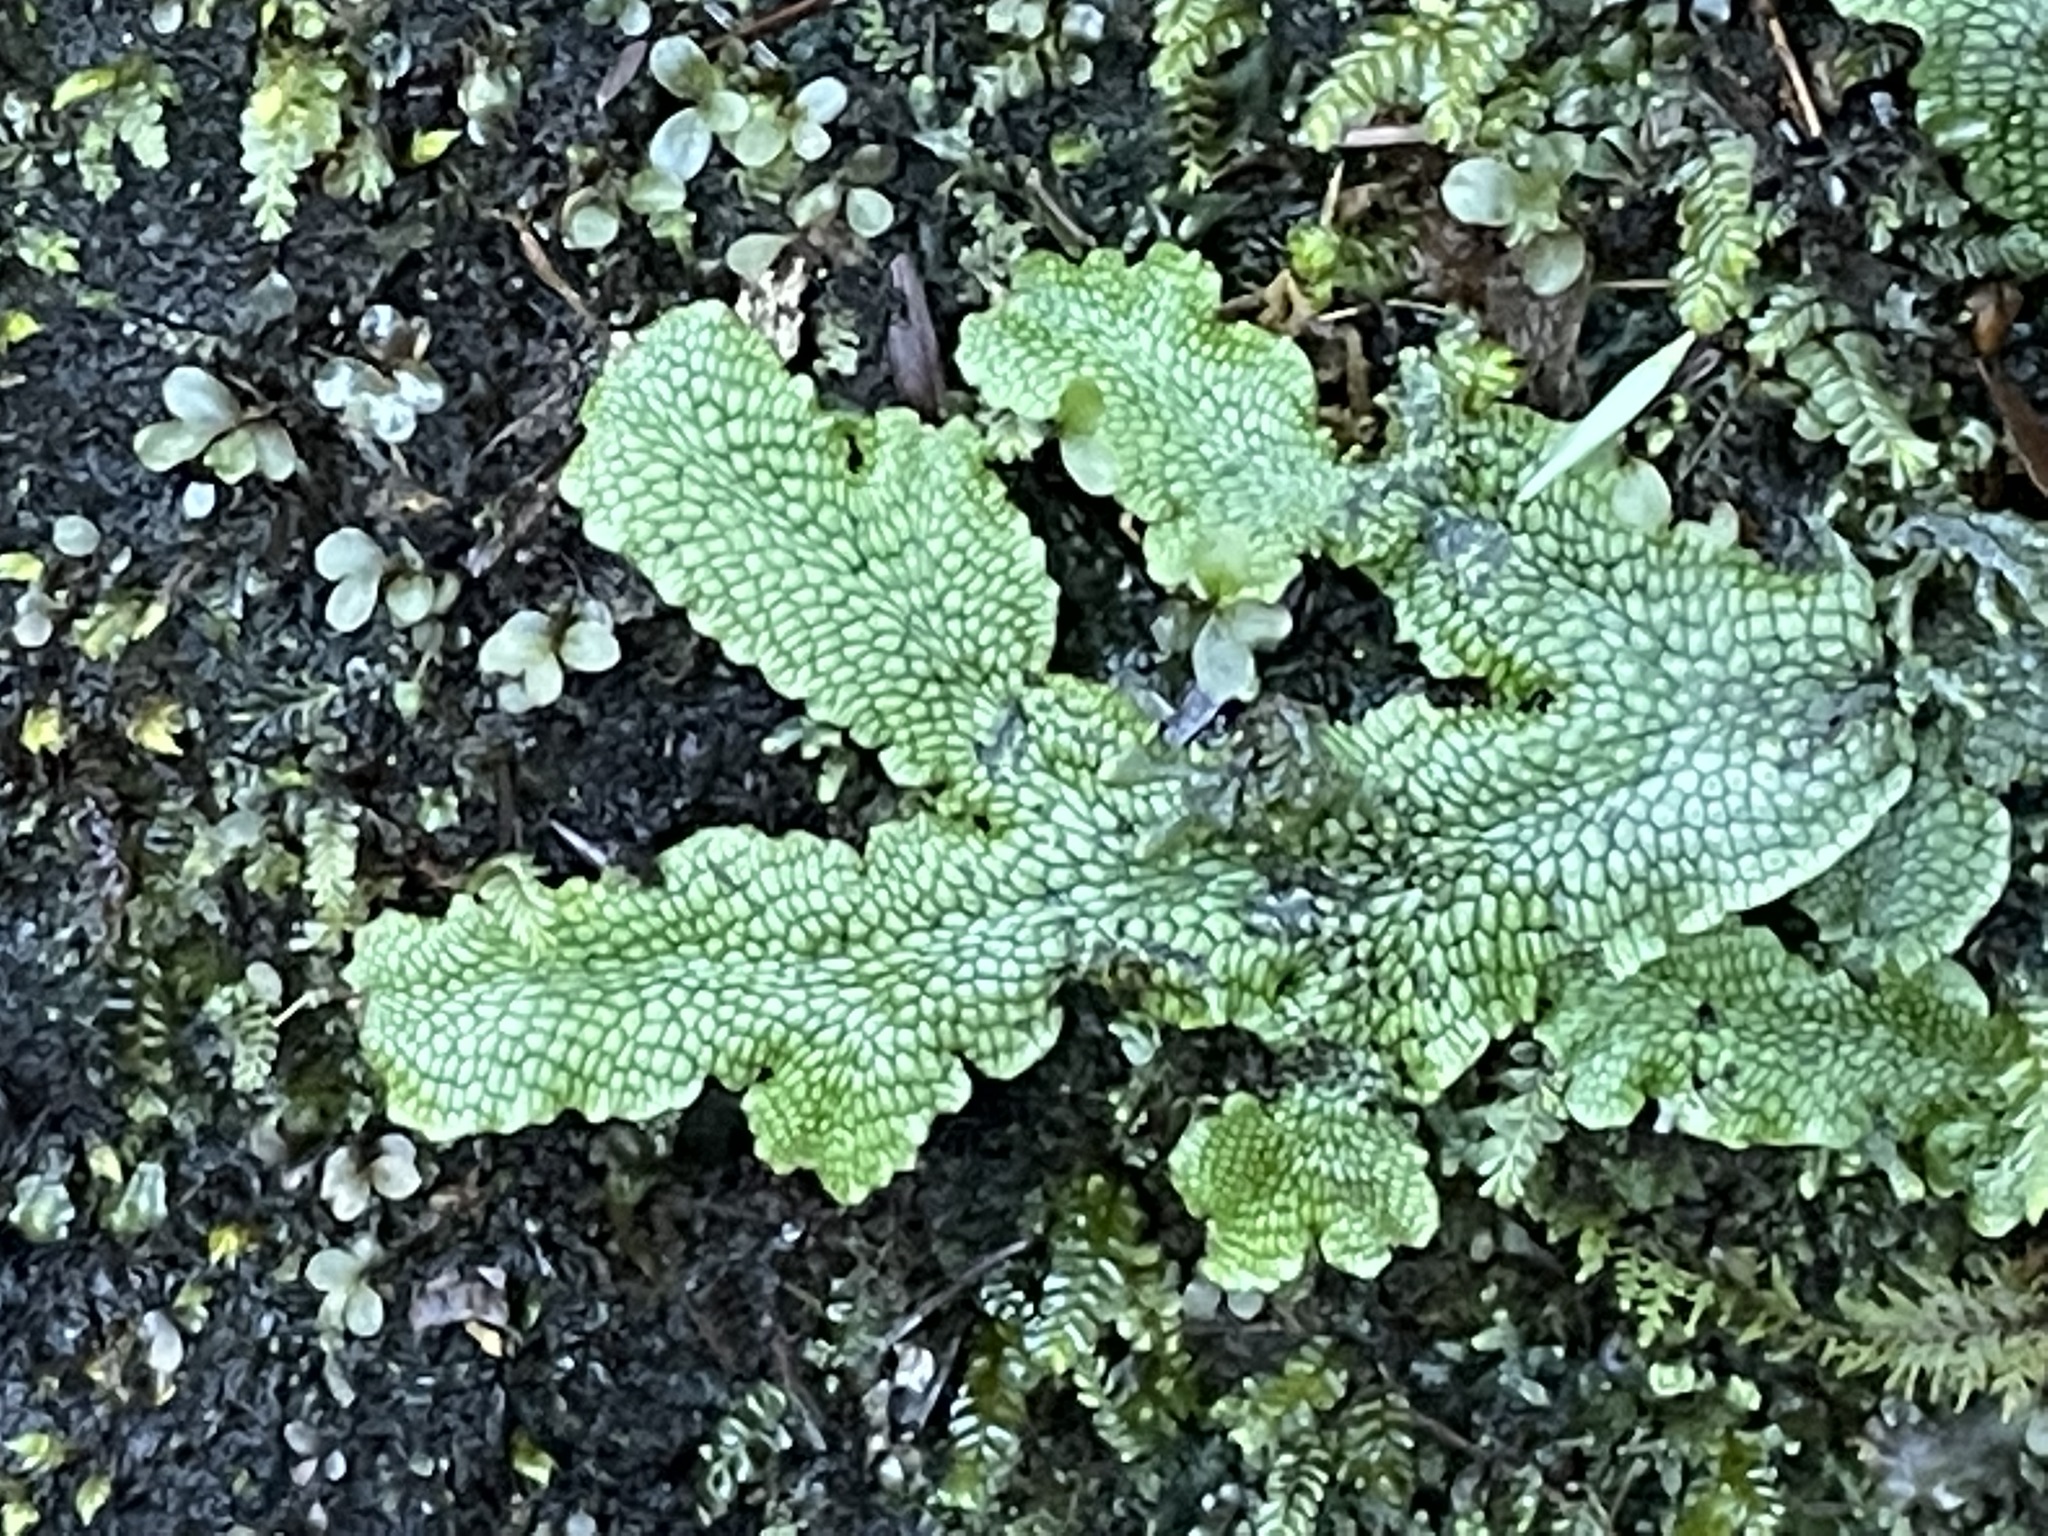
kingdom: Plantae
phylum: Marchantiophyta
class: Marchantiopsida
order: Marchantiales
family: Conocephalaceae
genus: Conocephalum
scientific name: Conocephalum salebrosum
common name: Cat-tongue liverwort
